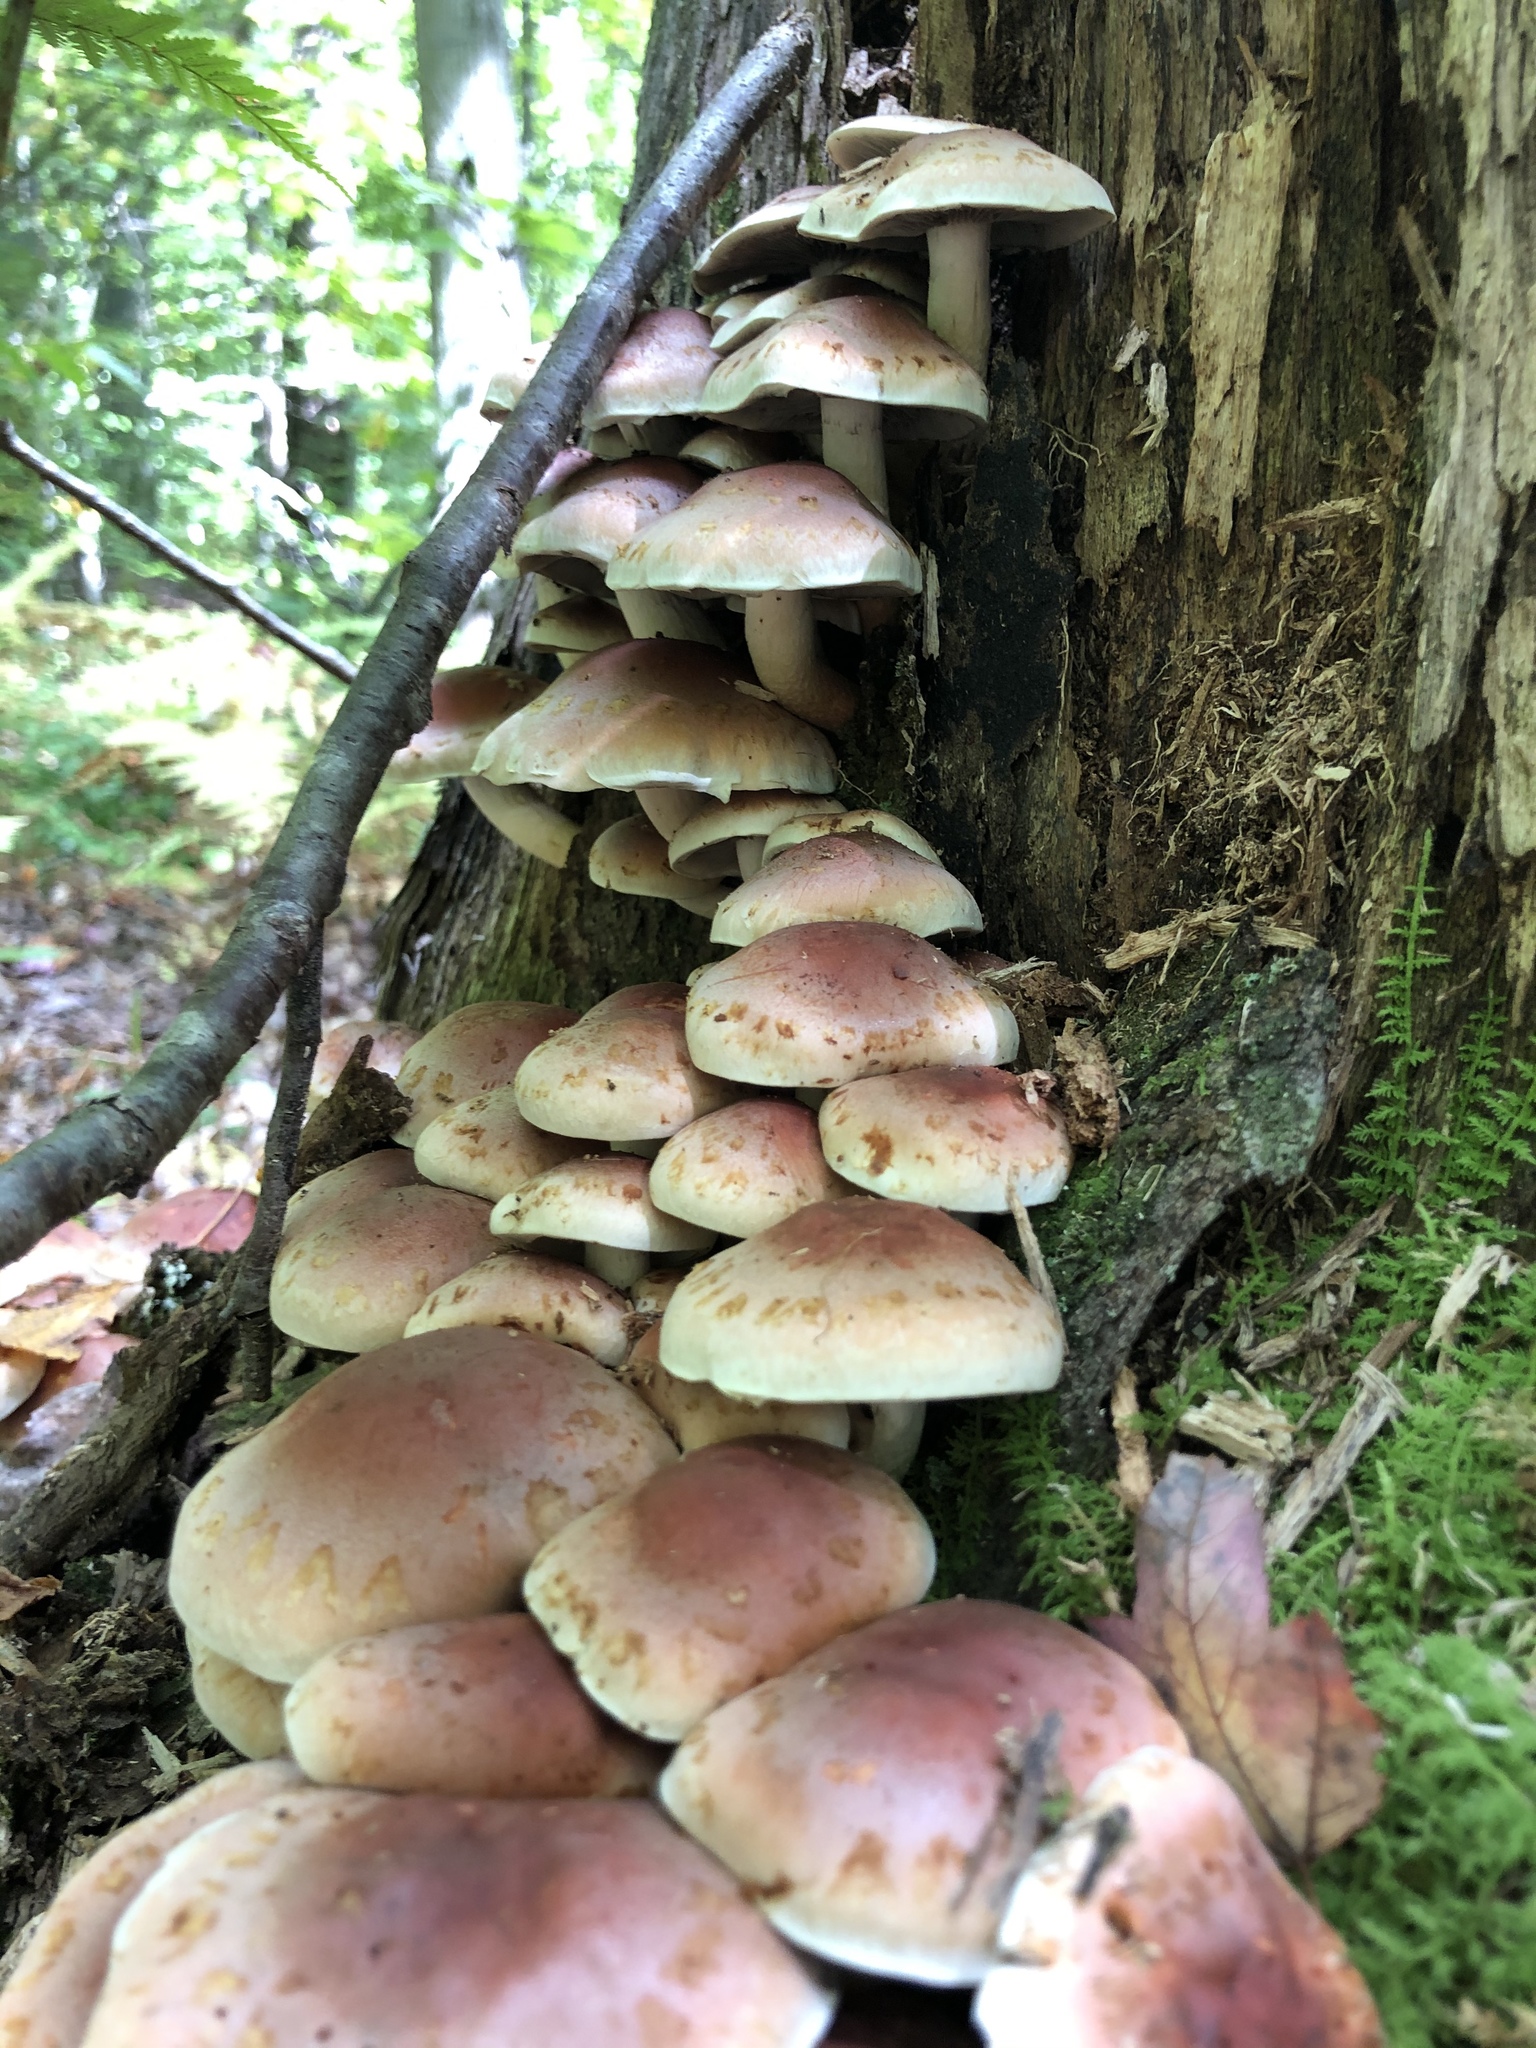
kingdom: Fungi
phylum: Basidiomycota
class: Agaricomycetes
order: Agaricales
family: Strophariaceae
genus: Hypholoma
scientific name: Hypholoma lateritium
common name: Brick caps
